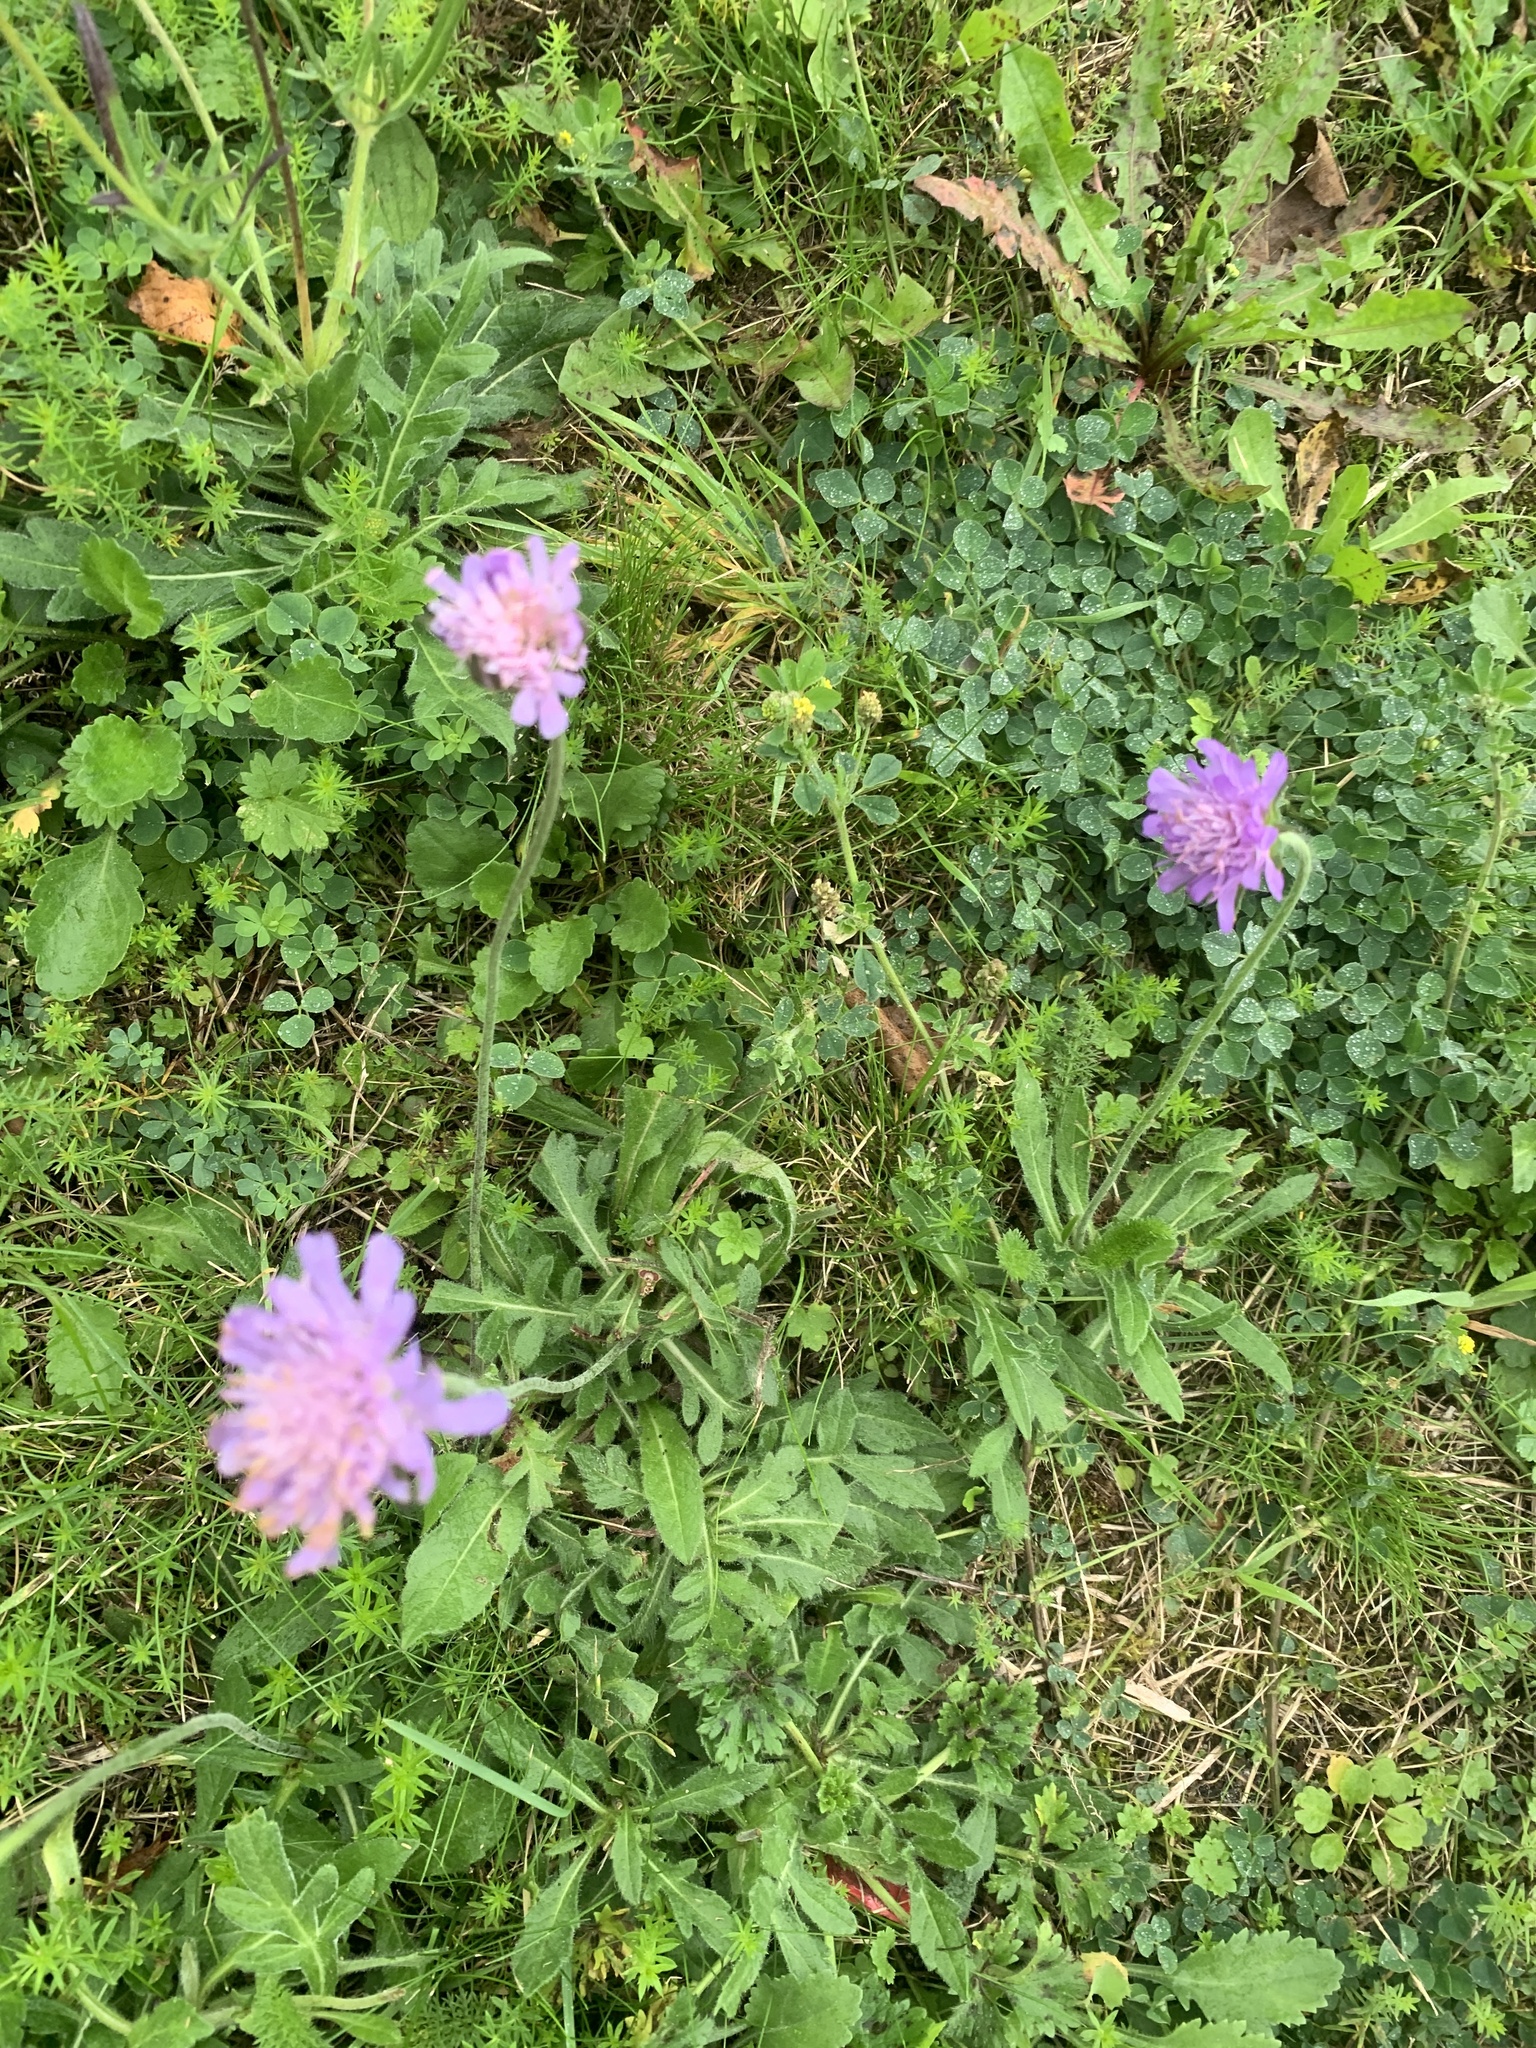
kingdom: Plantae
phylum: Tracheophyta
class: Magnoliopsida
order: Dipsacales
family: Caprifoliaceae
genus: Knautia
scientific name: Knautia arvensis
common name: Field scabiosa
